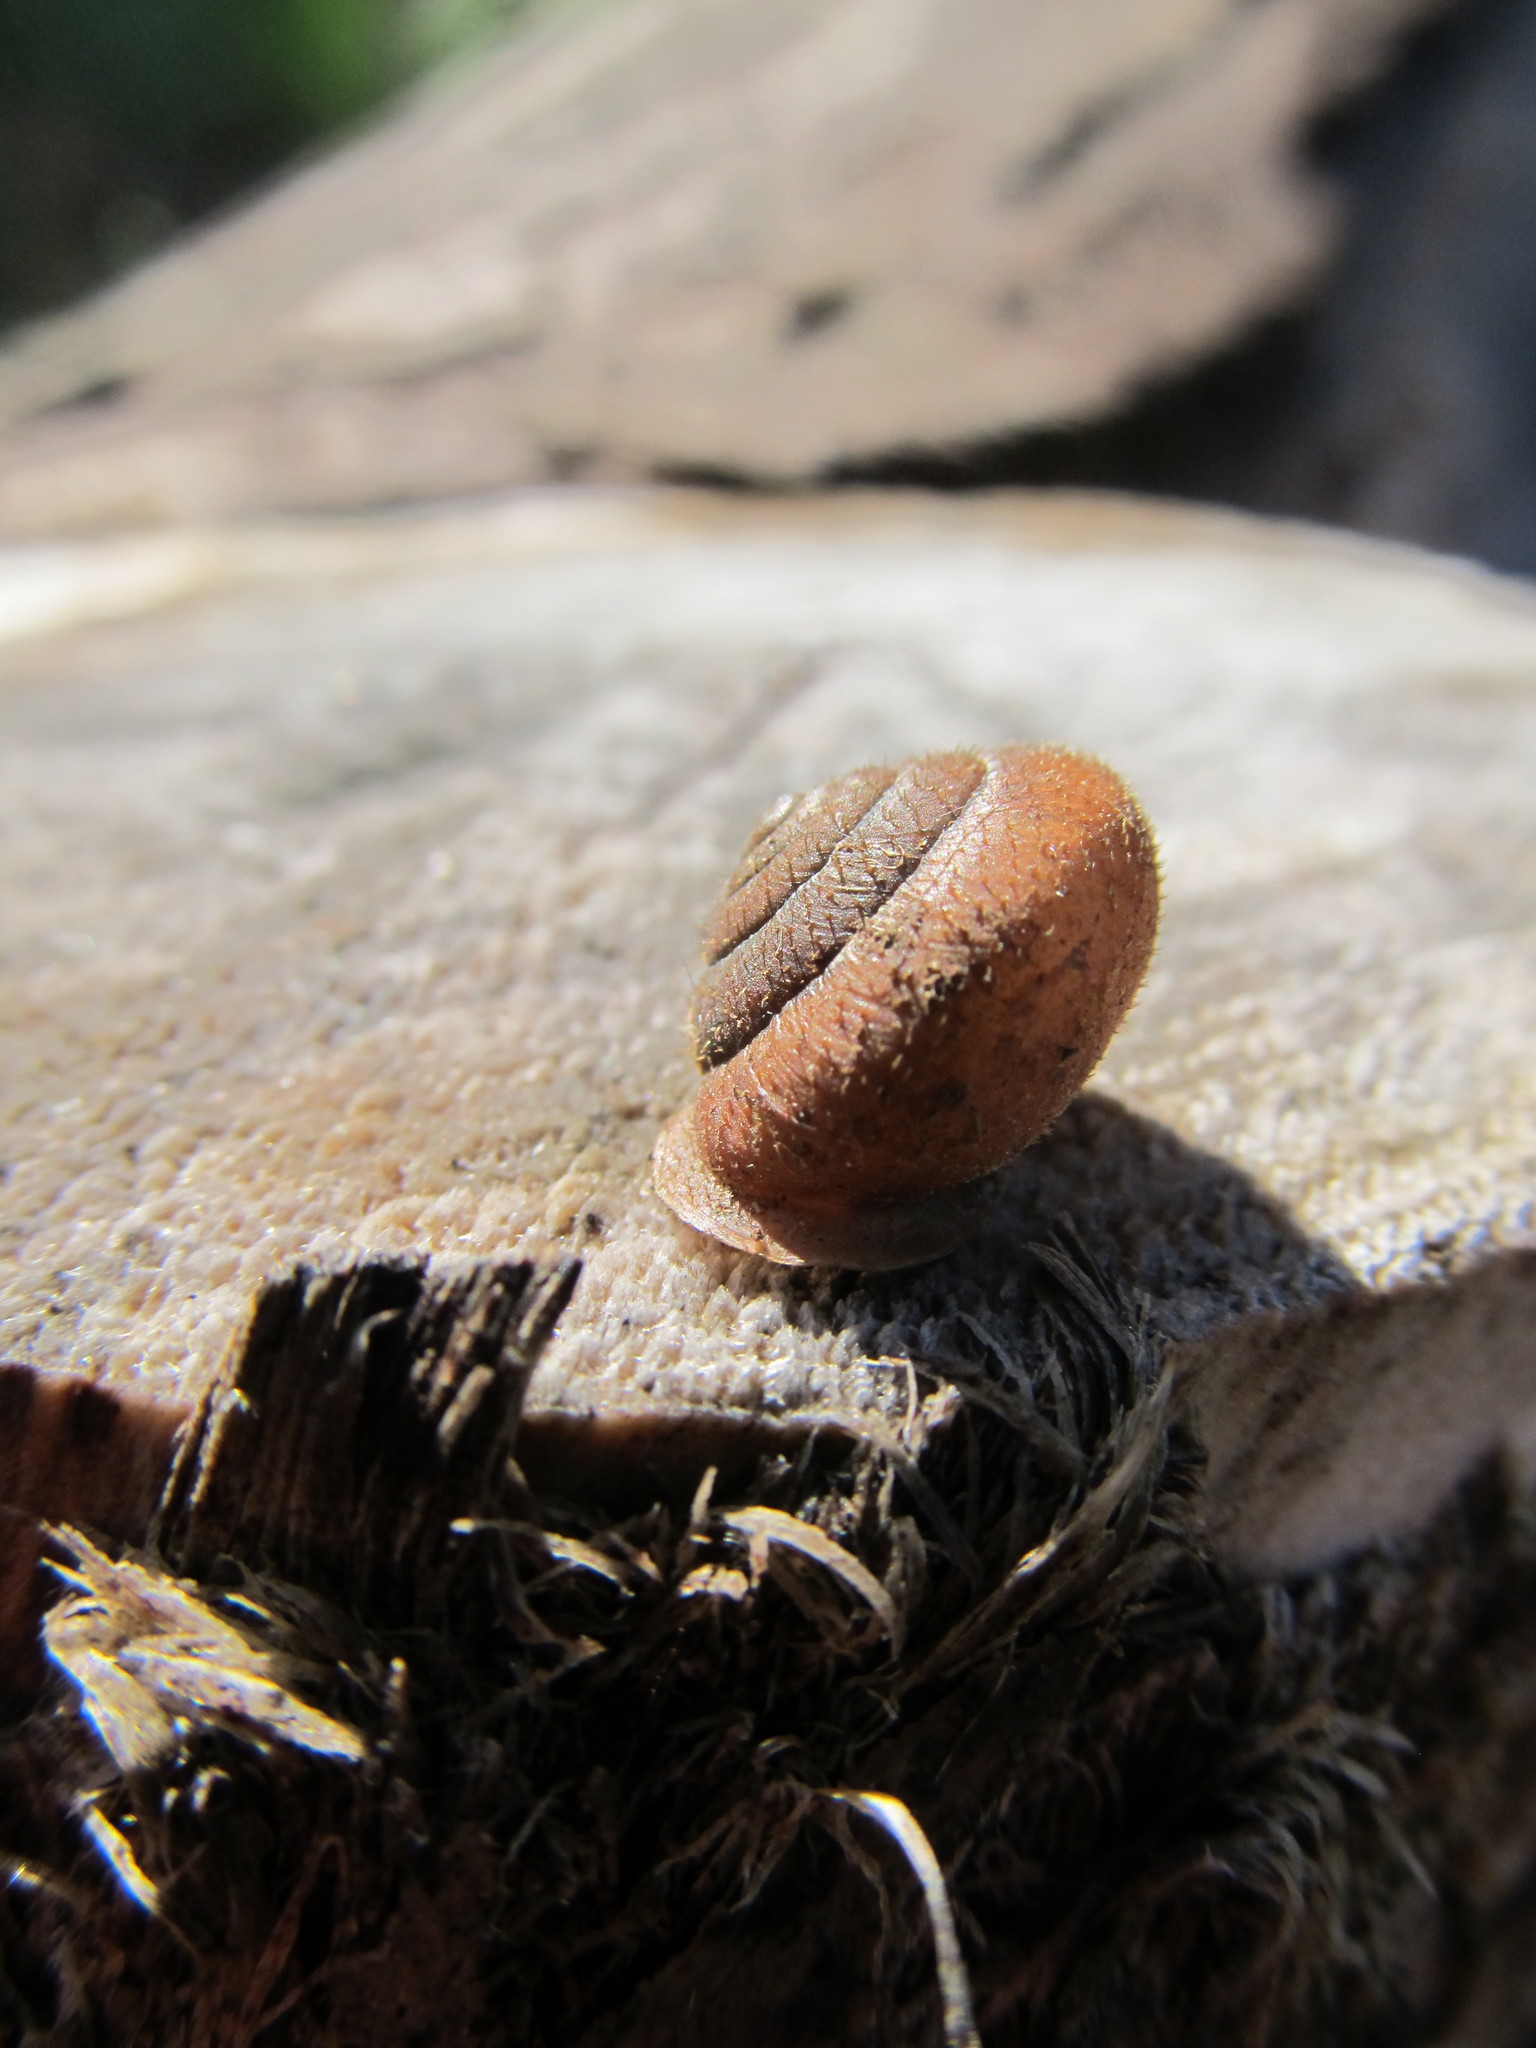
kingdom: Animalia
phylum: Mollusca
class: Gastropoda
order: Stylommatophora
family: Polygyridae
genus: Vespericola
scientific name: Vespericola columbianus
